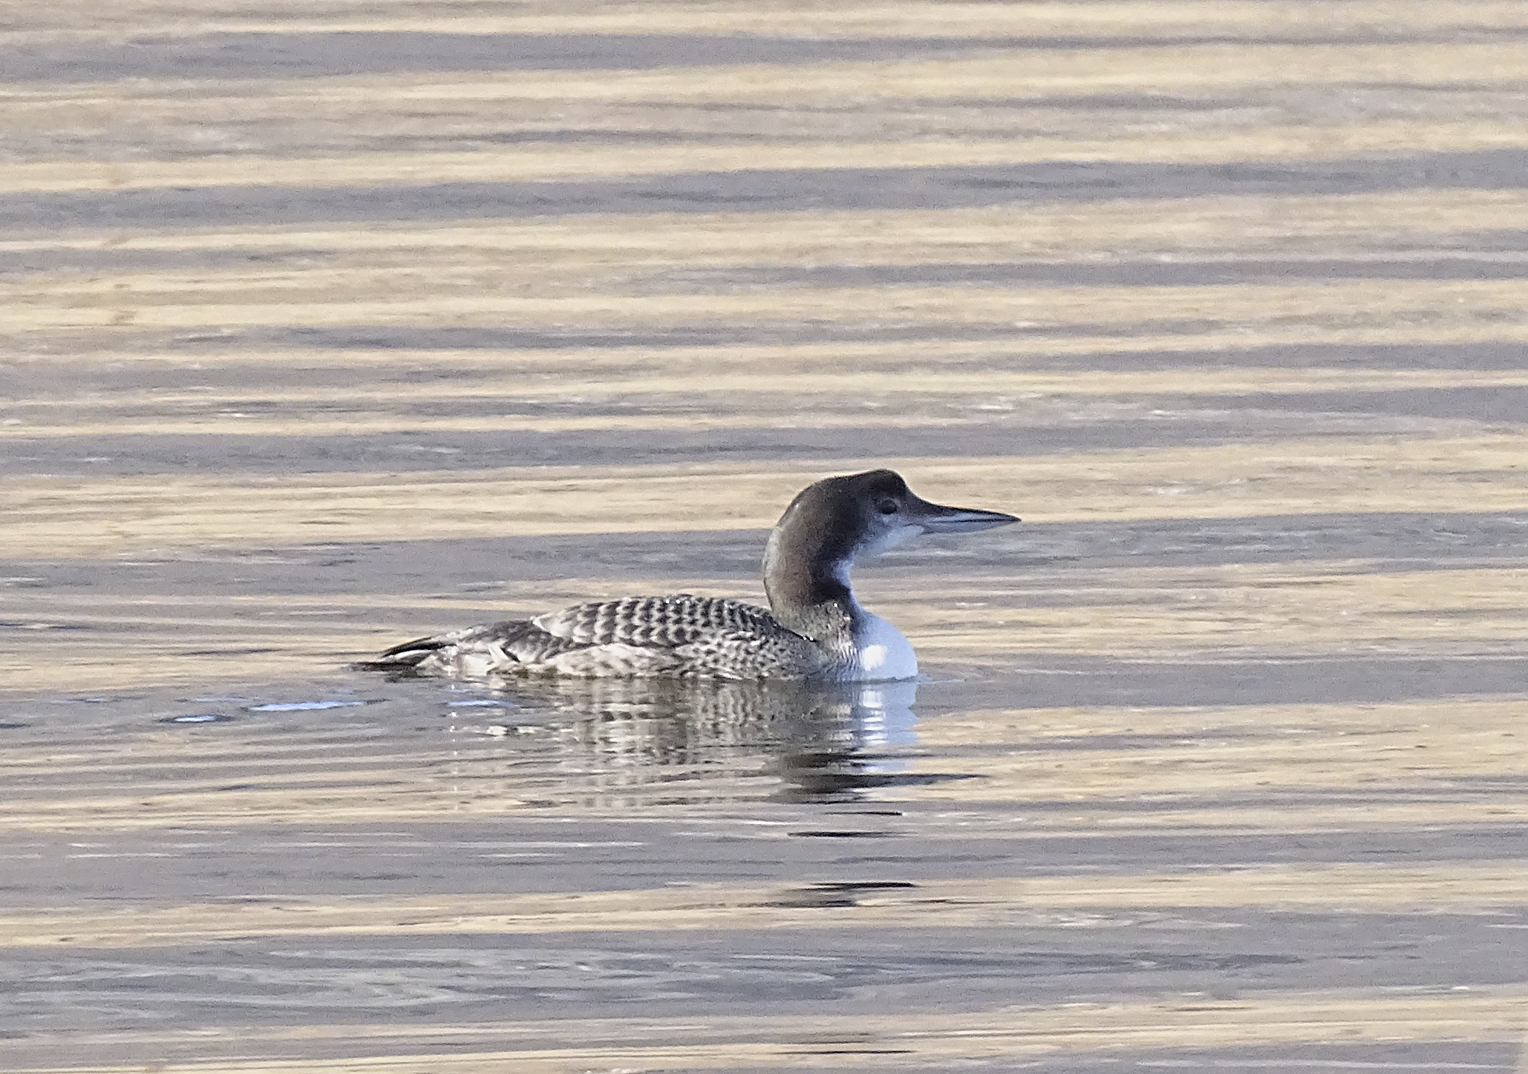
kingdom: Animalia
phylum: Chordata
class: Aves
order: Gaviiformes
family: Gaviidae
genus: Gavia
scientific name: Gavia immer
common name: Common loon
